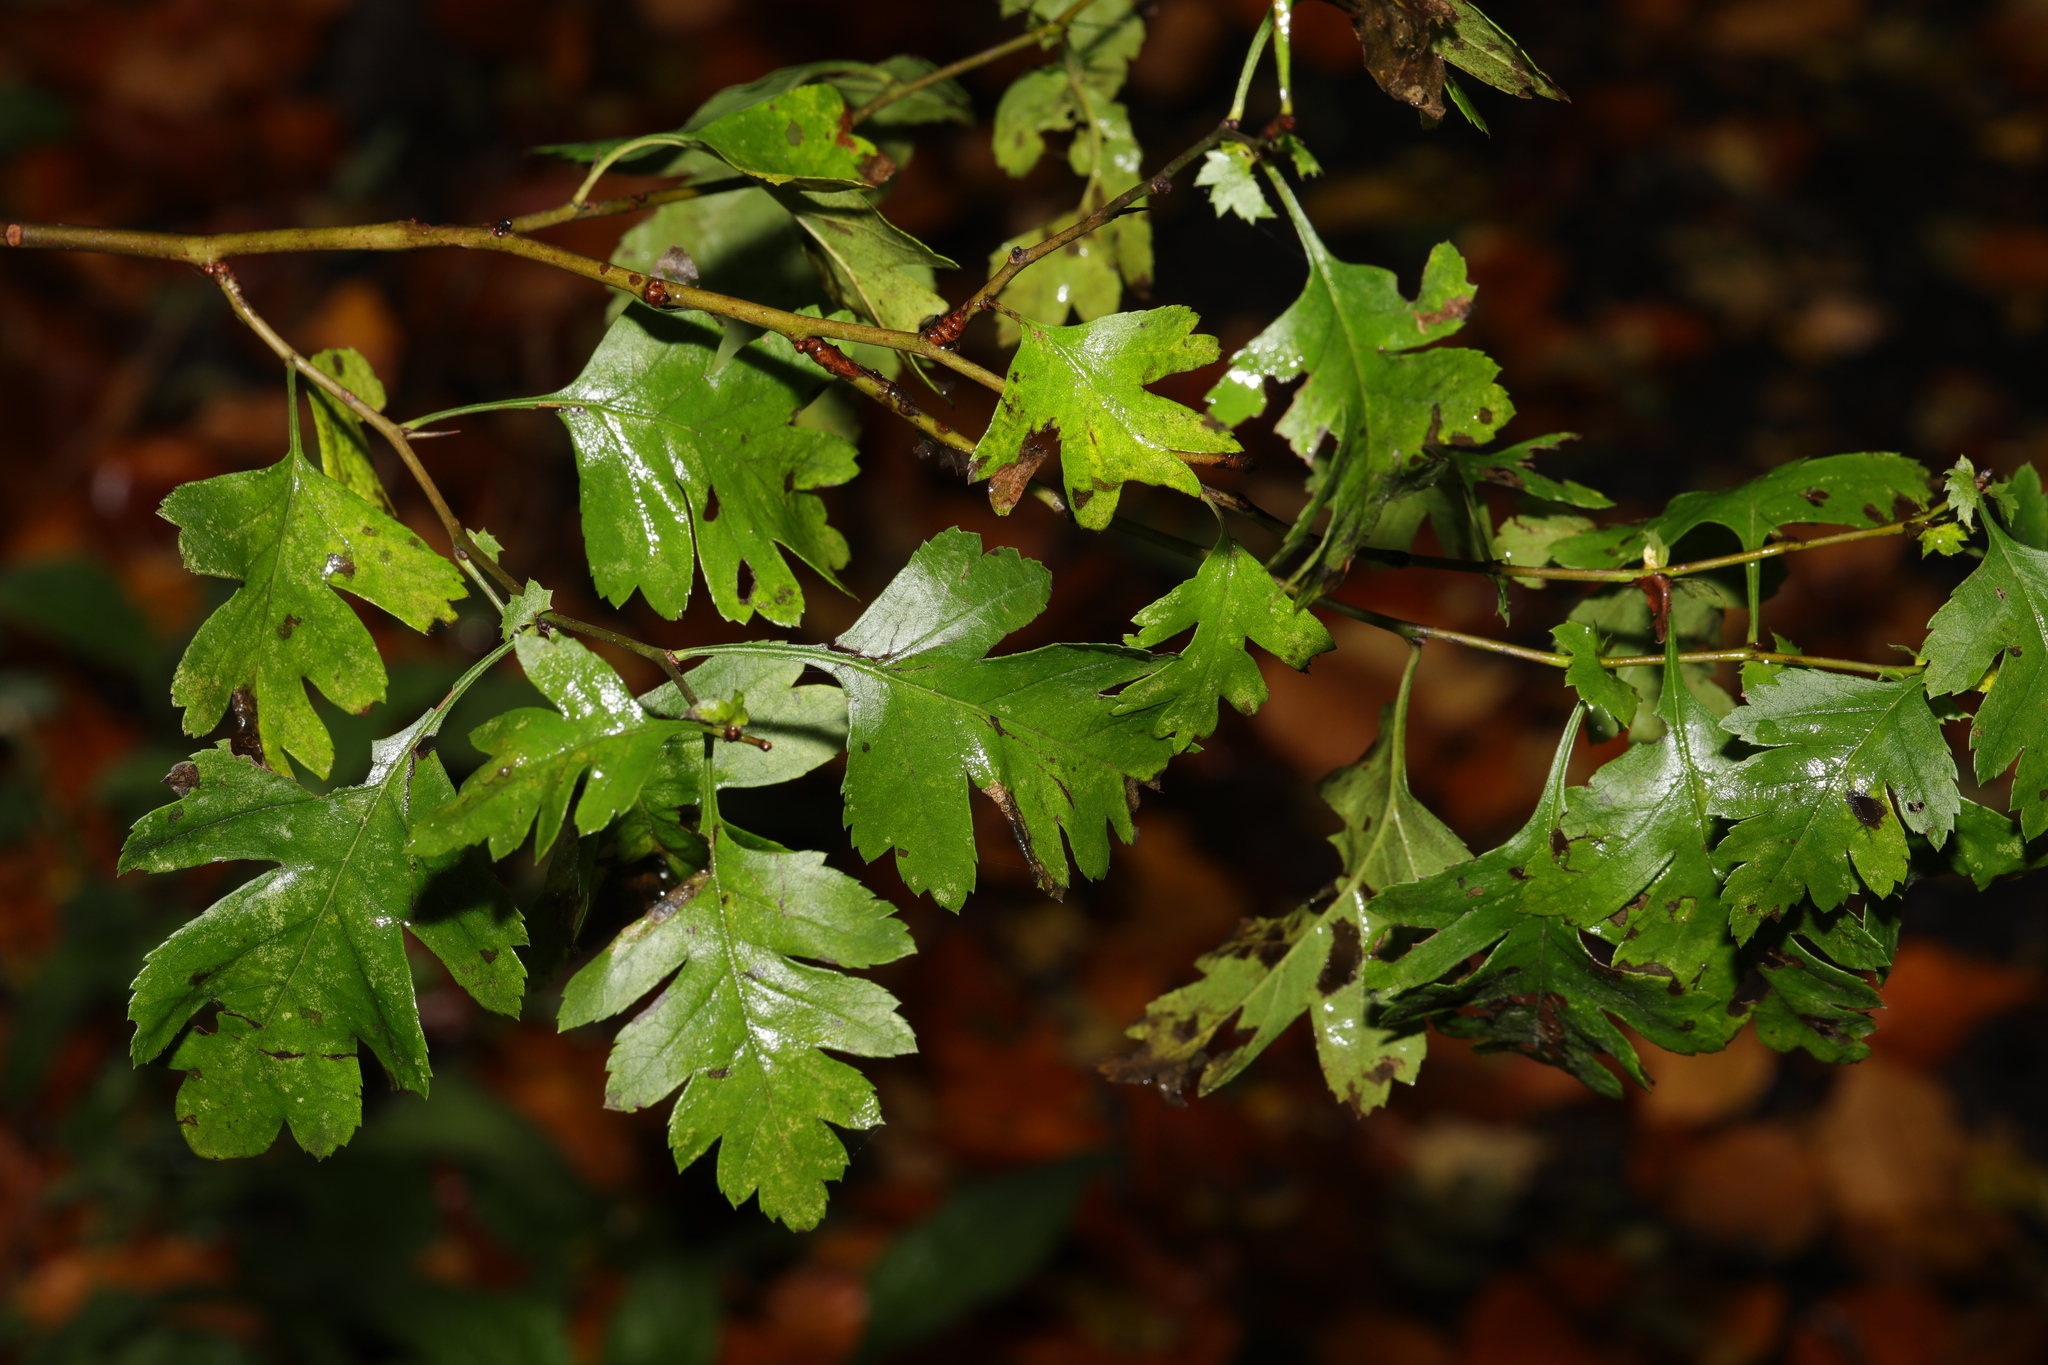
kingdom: Plantae
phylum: Tracheophyta
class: Magnoliopsida
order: Rosales
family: Rosaceae
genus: Crataegus
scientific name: Crataegus monogyna
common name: Hawthorn
